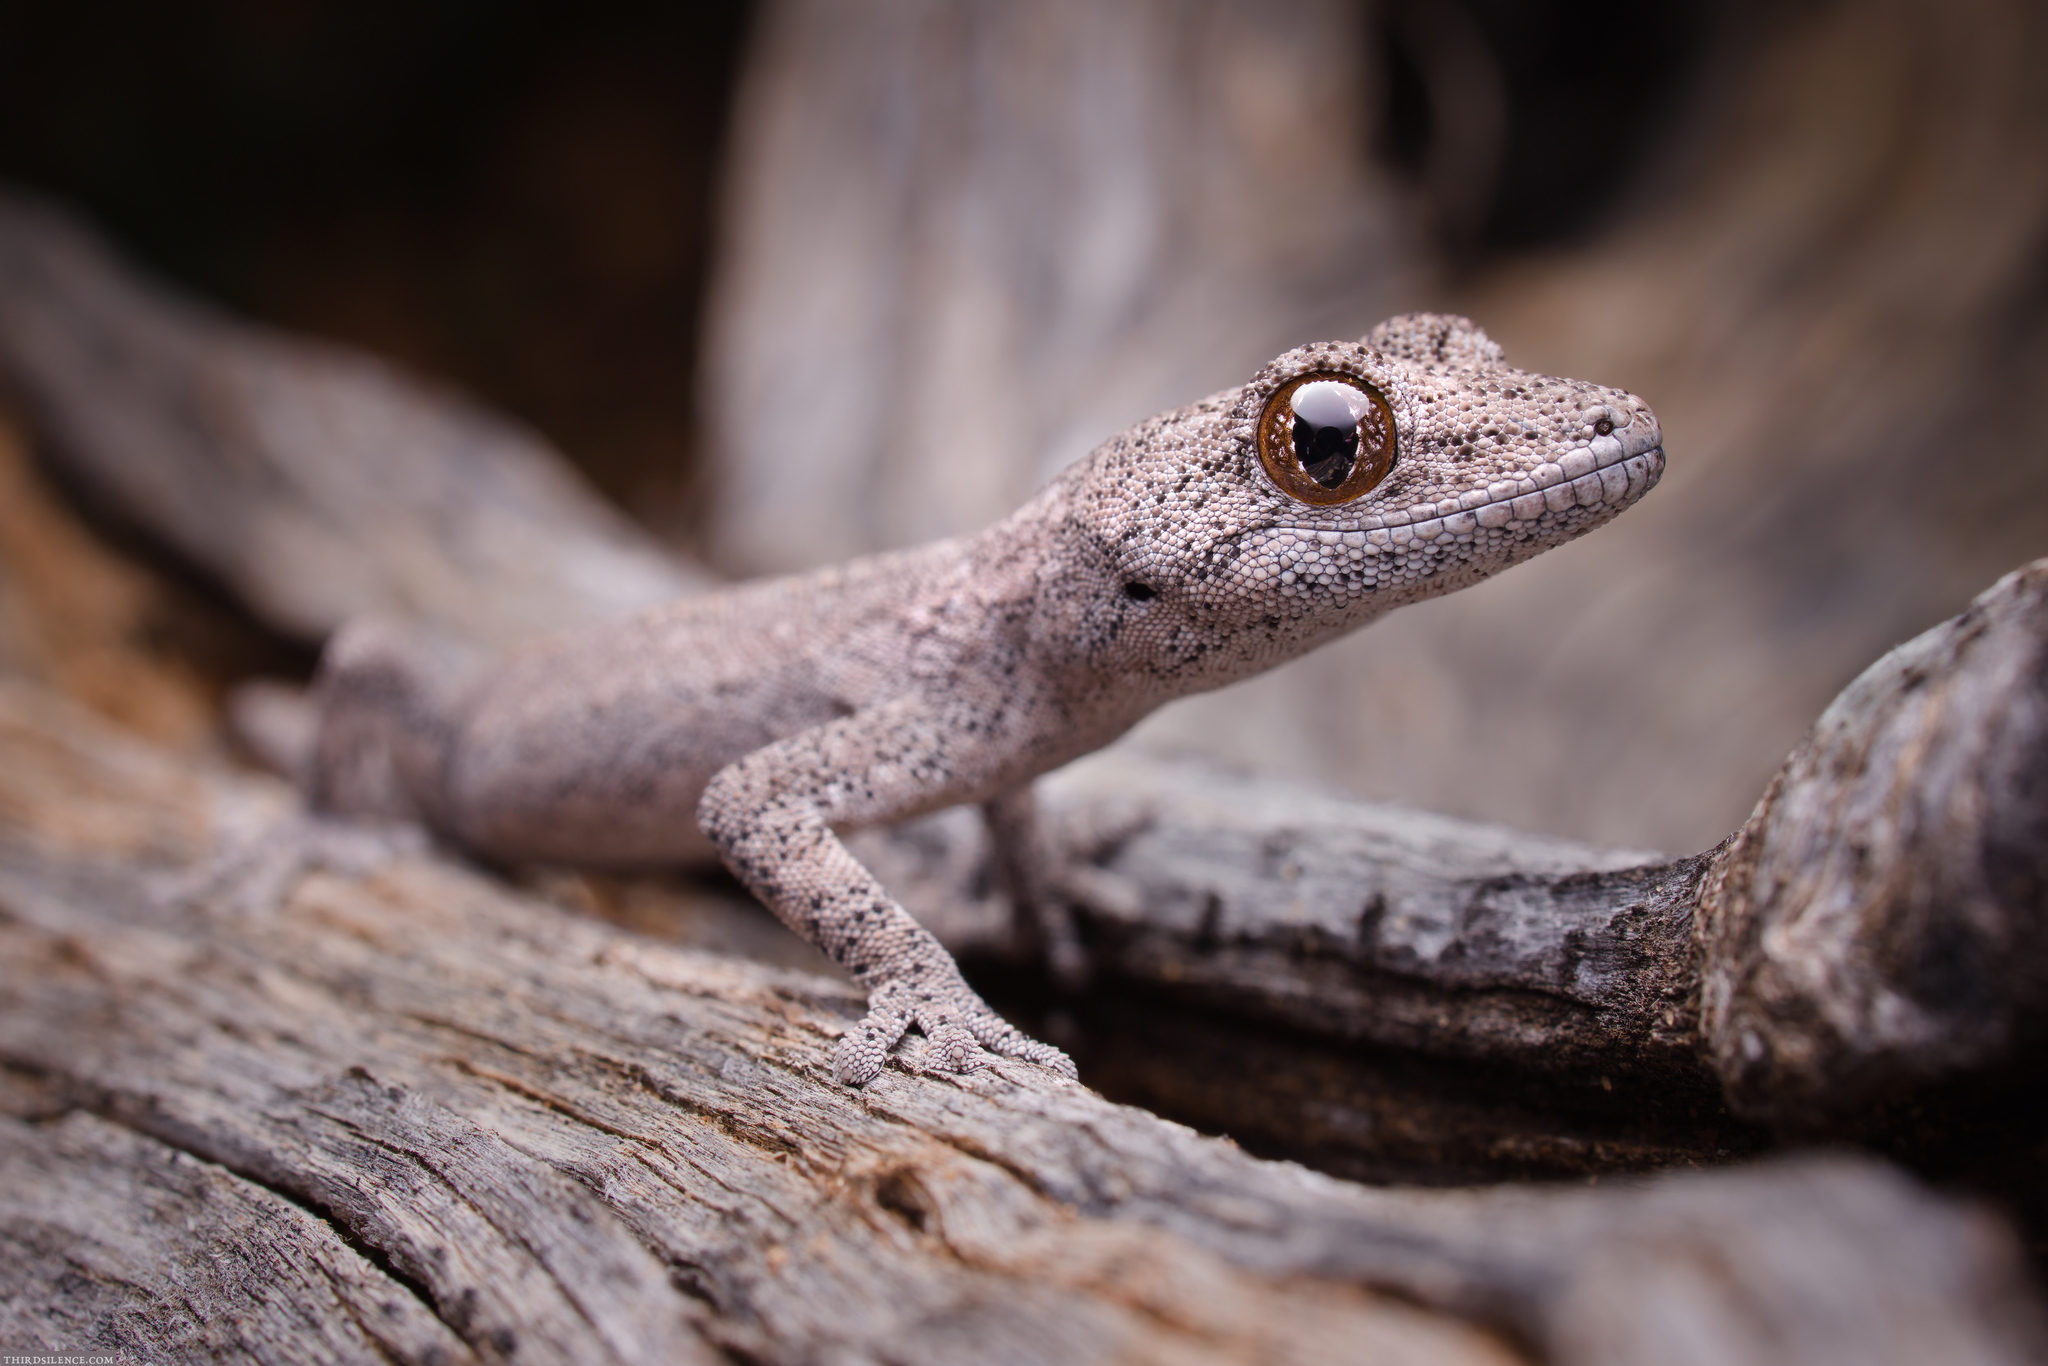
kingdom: Animalia
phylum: Chordata
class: Squamata
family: Diplodactylidae
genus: Strophurus
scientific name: Strophurus intermedius
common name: Eastern spiny-tailed gecko
